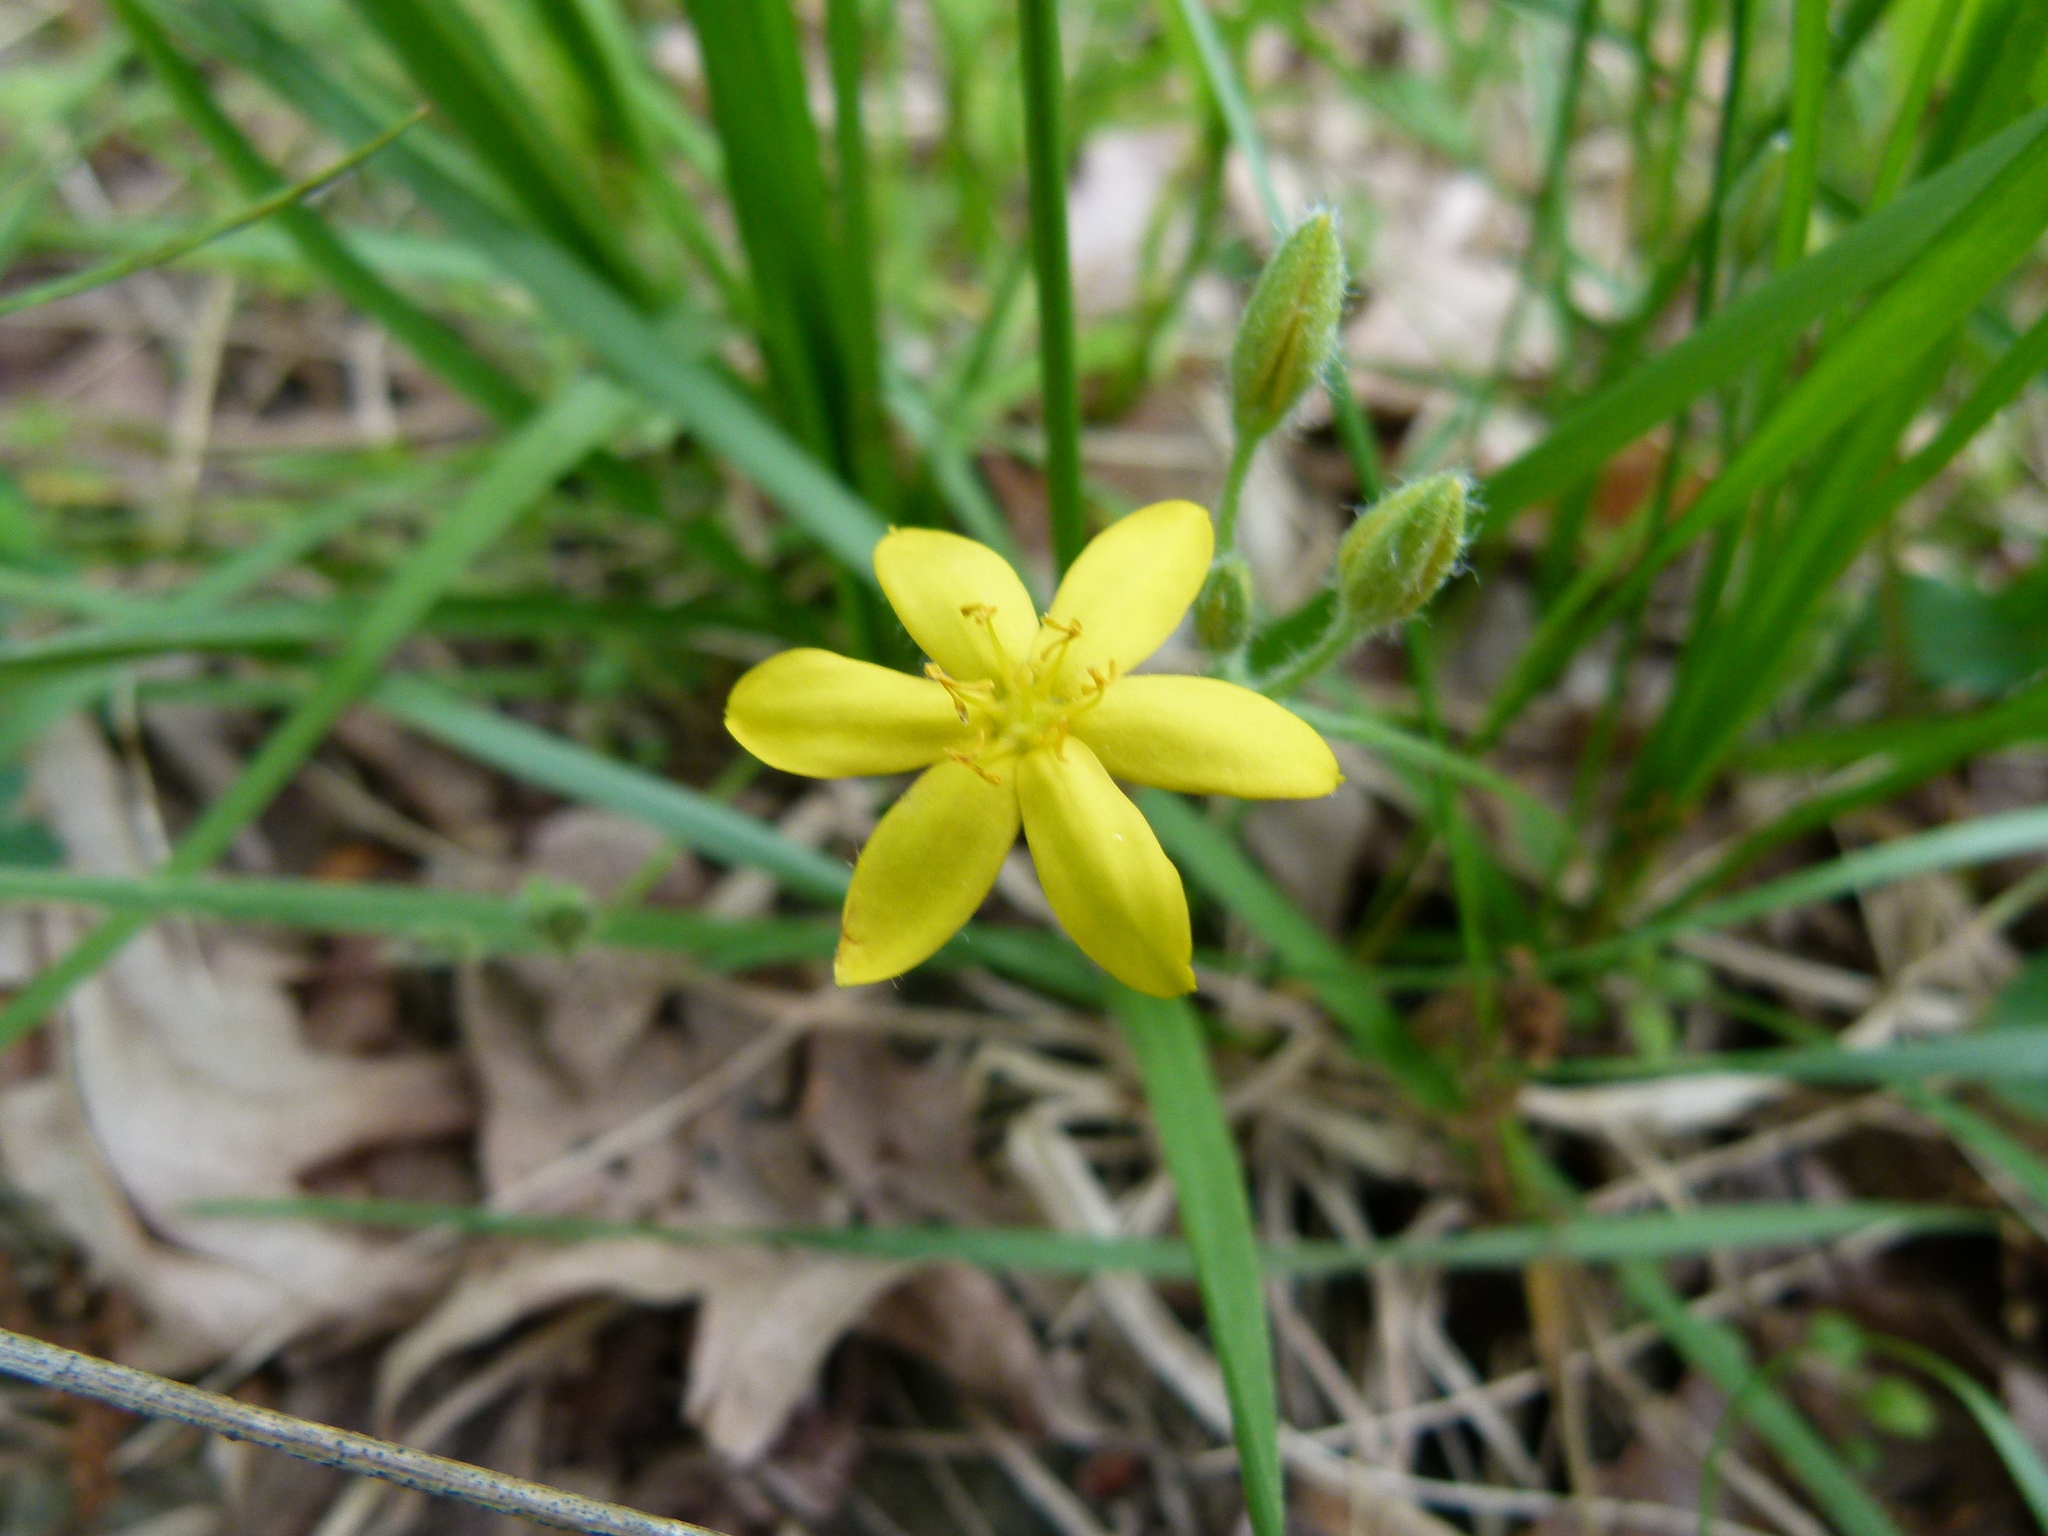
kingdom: Plantae
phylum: Tracheophyta
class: Liliopsida
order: Asparagales
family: Hypoxidaceae
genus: Hypoxis
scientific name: Hypoxis hirsuta
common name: Common goldstar
